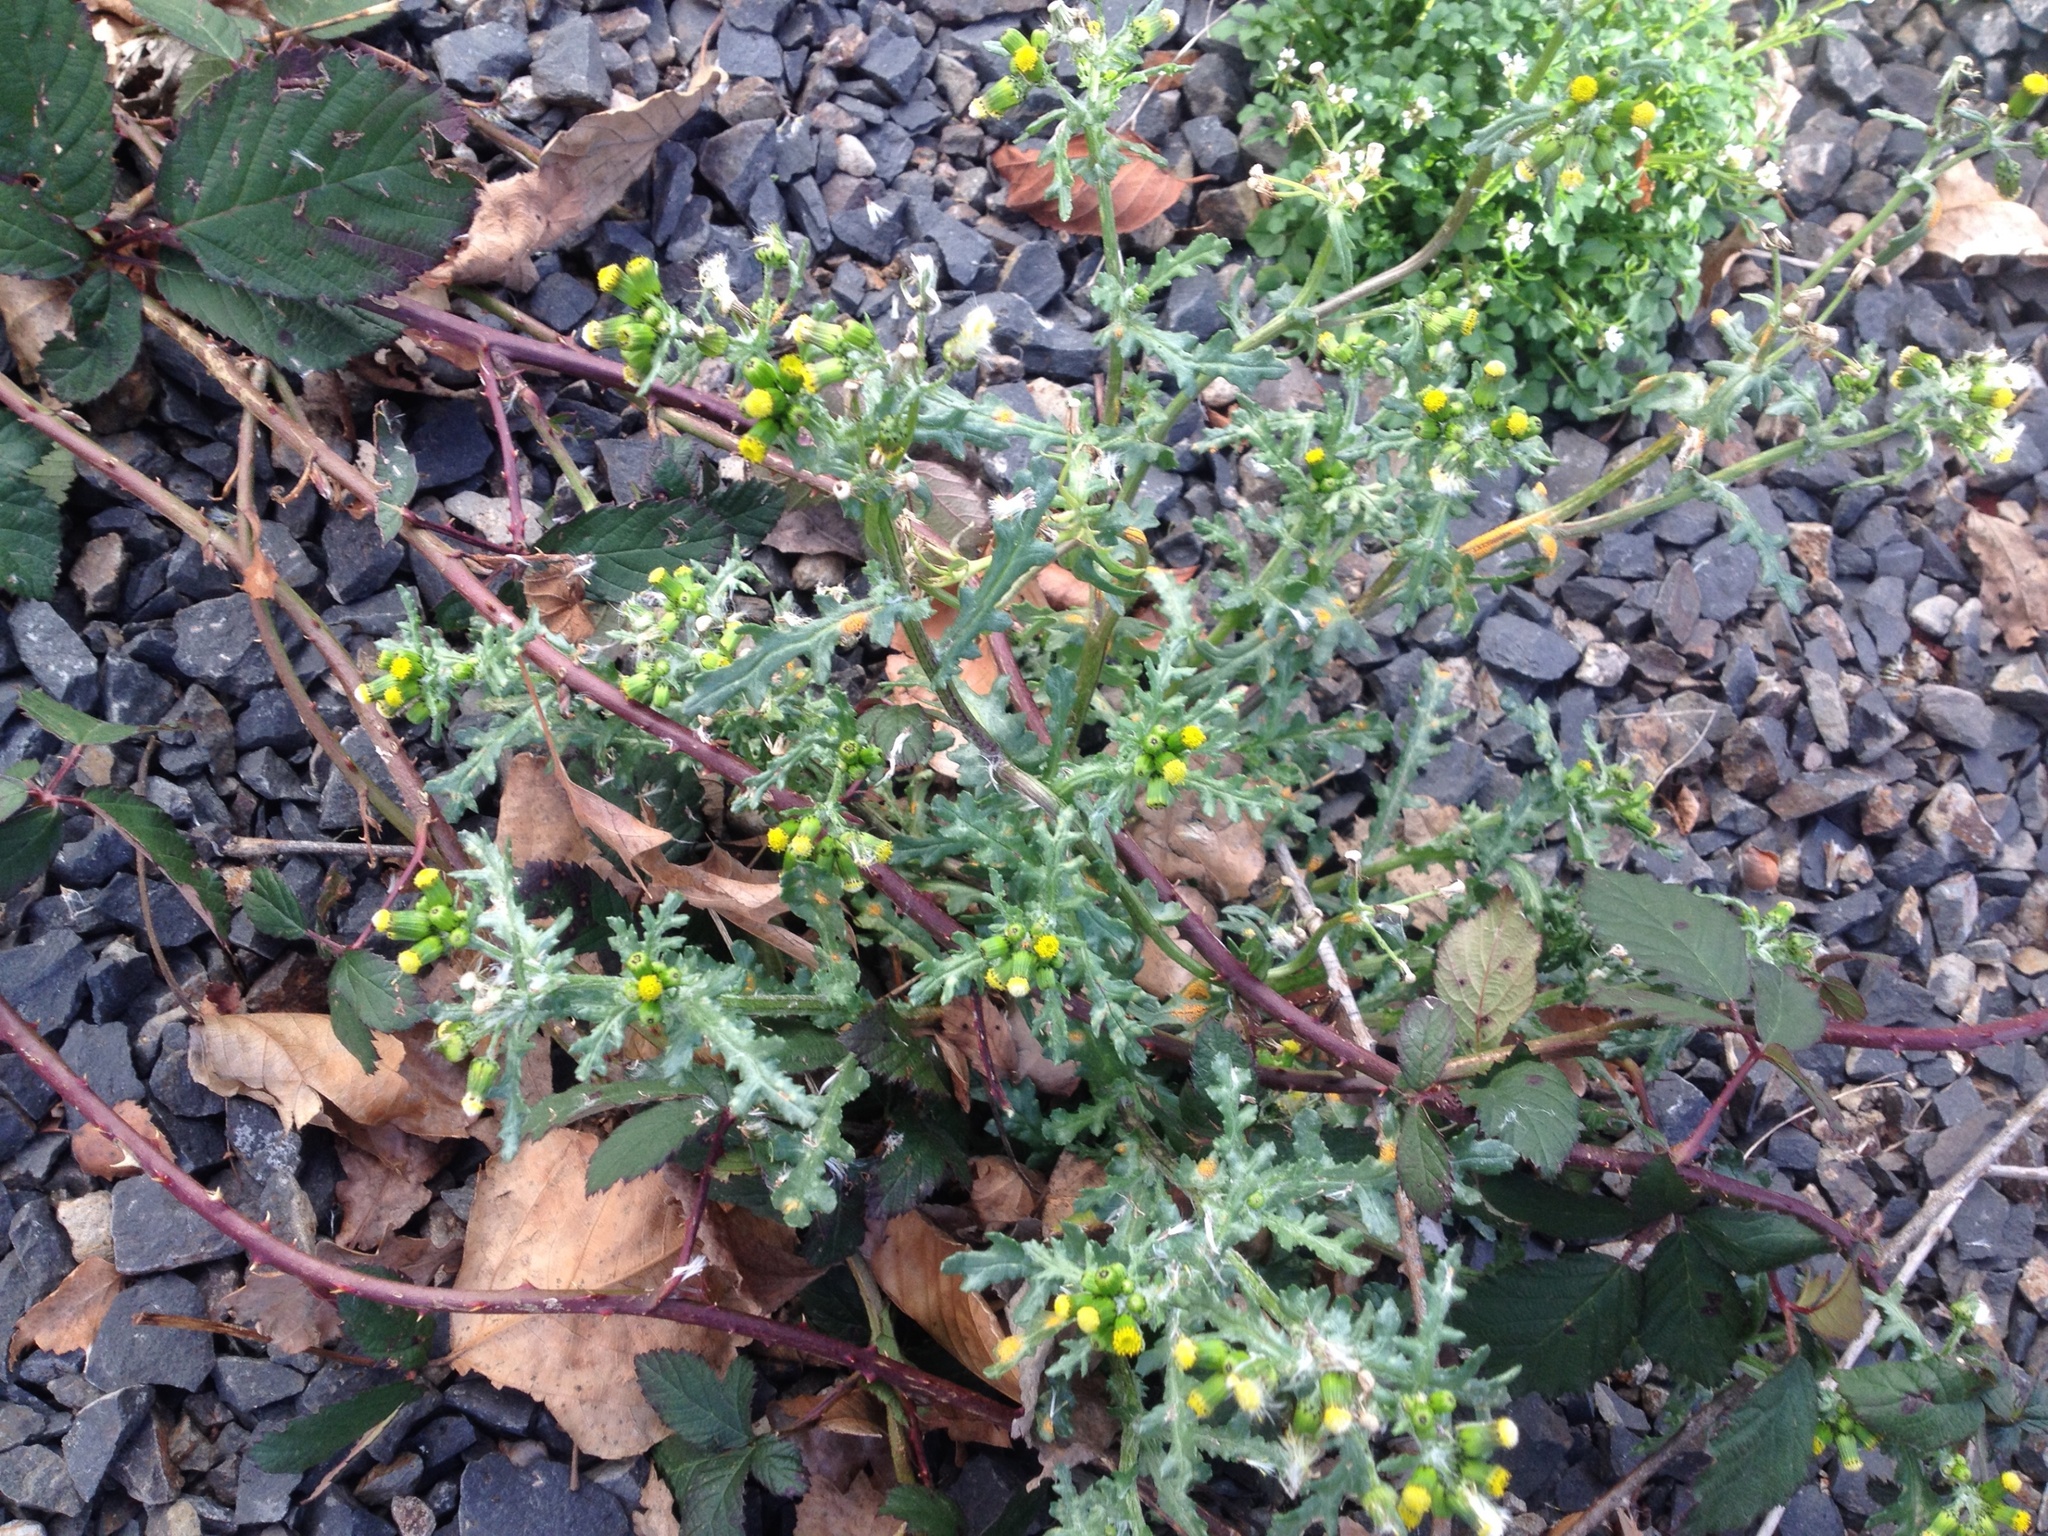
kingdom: Plantae
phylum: Tracheophyta
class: Magnoliopsida
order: Asterales
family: Asteraceae
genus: Senecio
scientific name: Senecio vulgaris
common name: Old-man-in-the-spring
